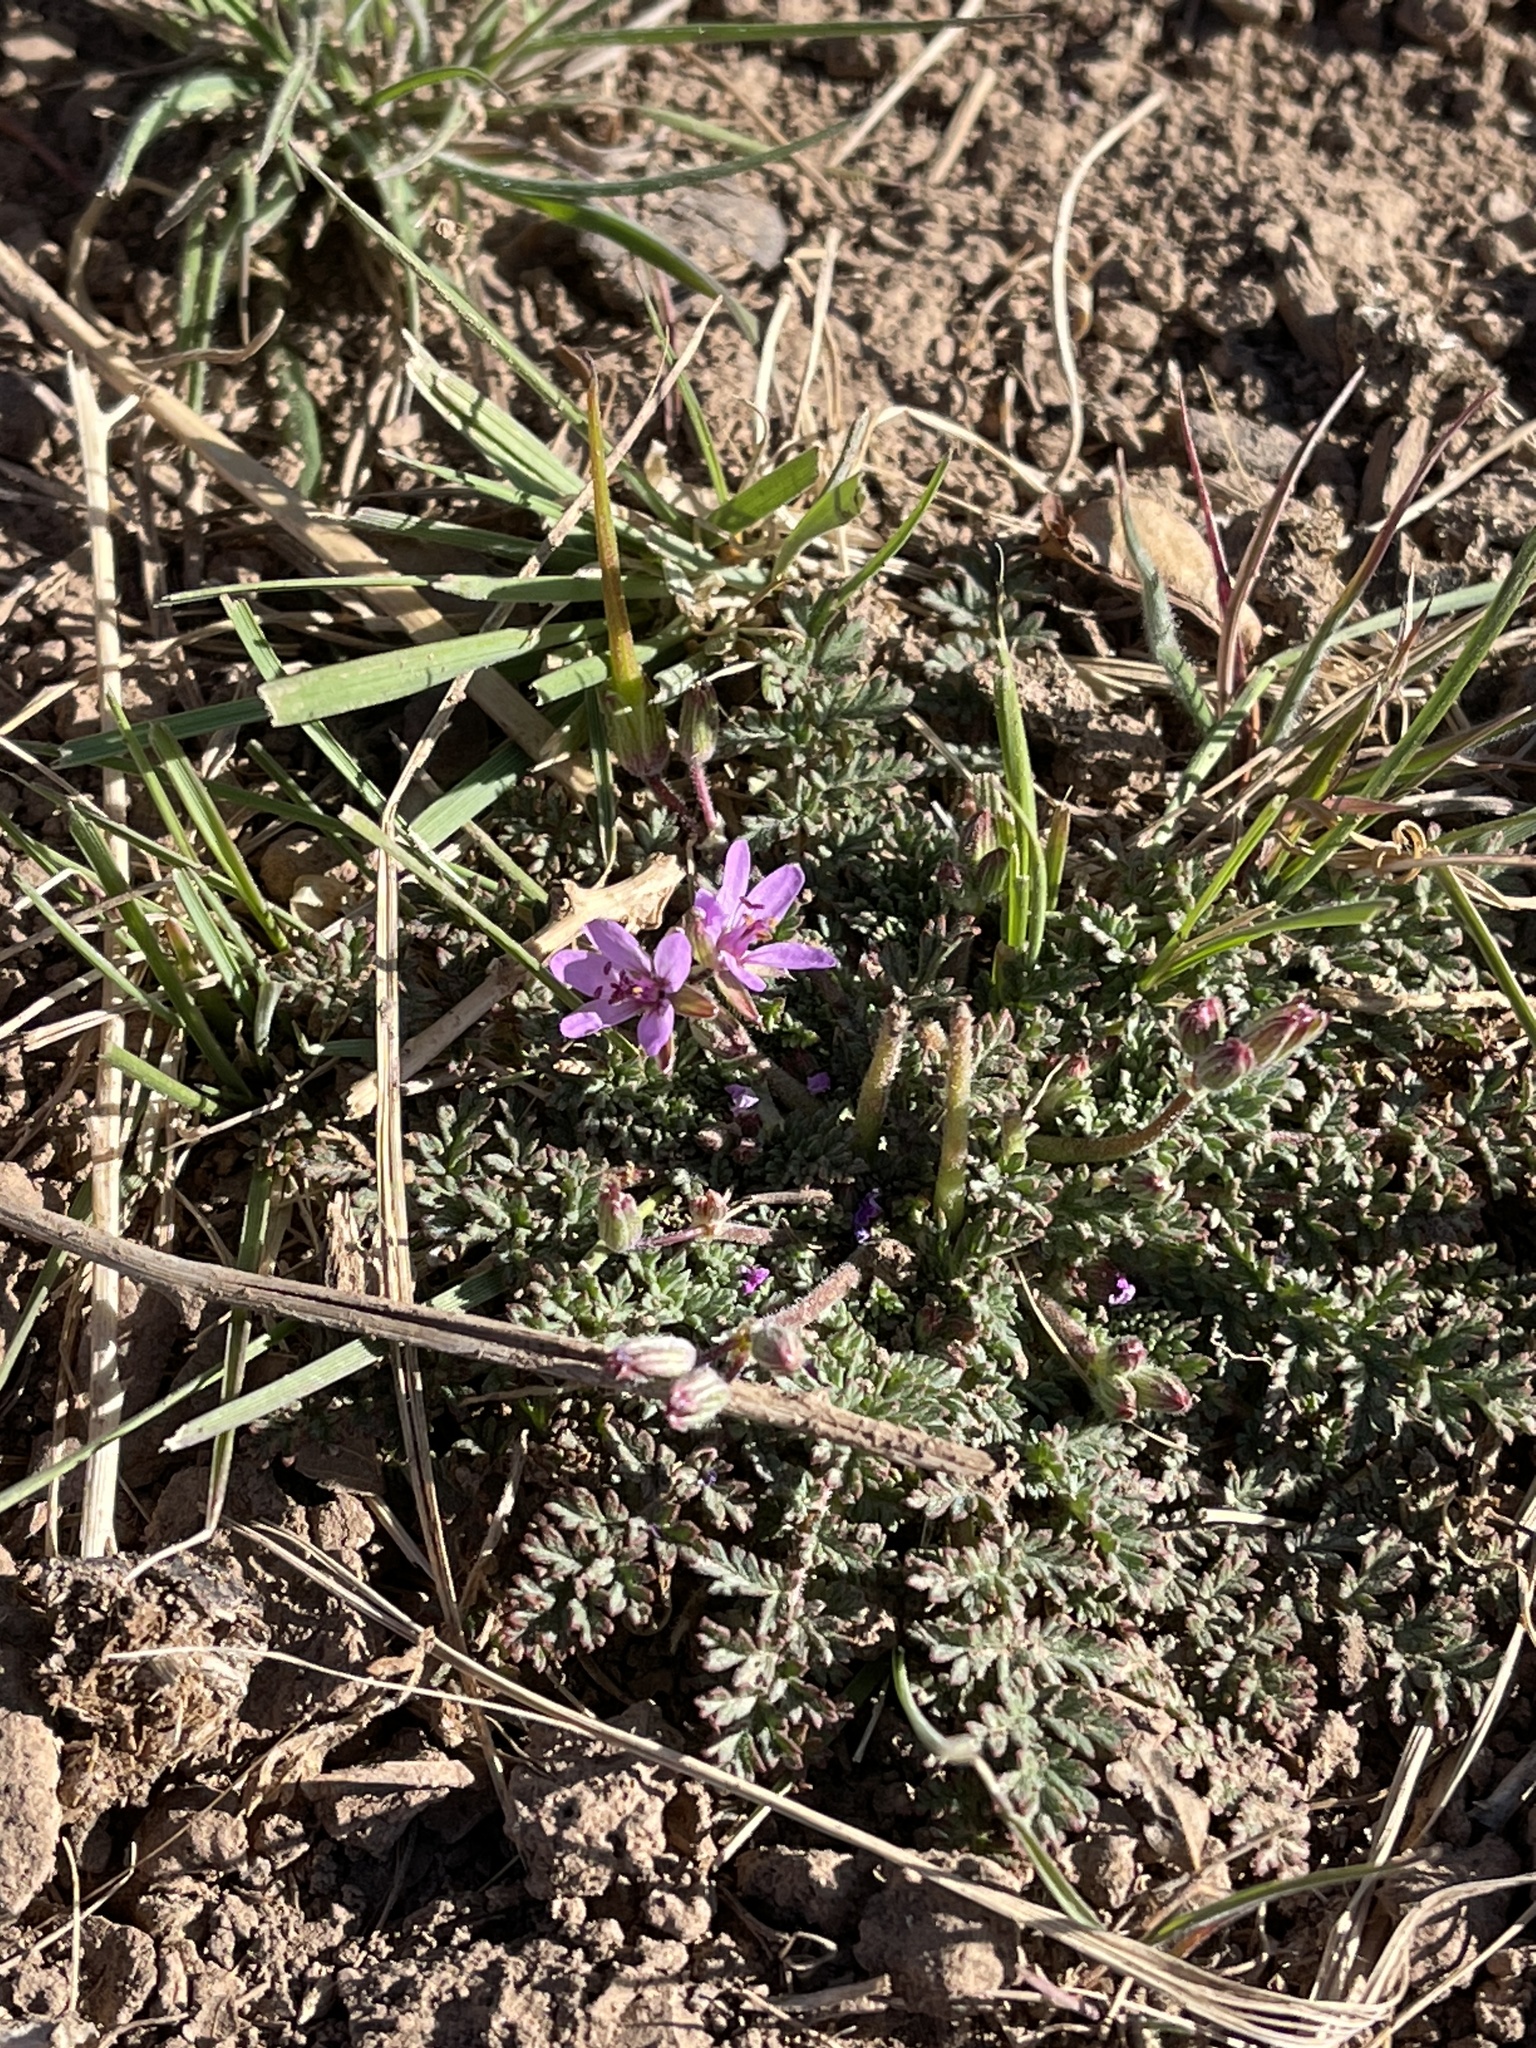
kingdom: Plantae
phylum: Tracheophyta
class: Magnoliopsida
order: Geraniales
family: Geraniaceae
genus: Erodium
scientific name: Erodium cicutarium
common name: Common stork's-bill
